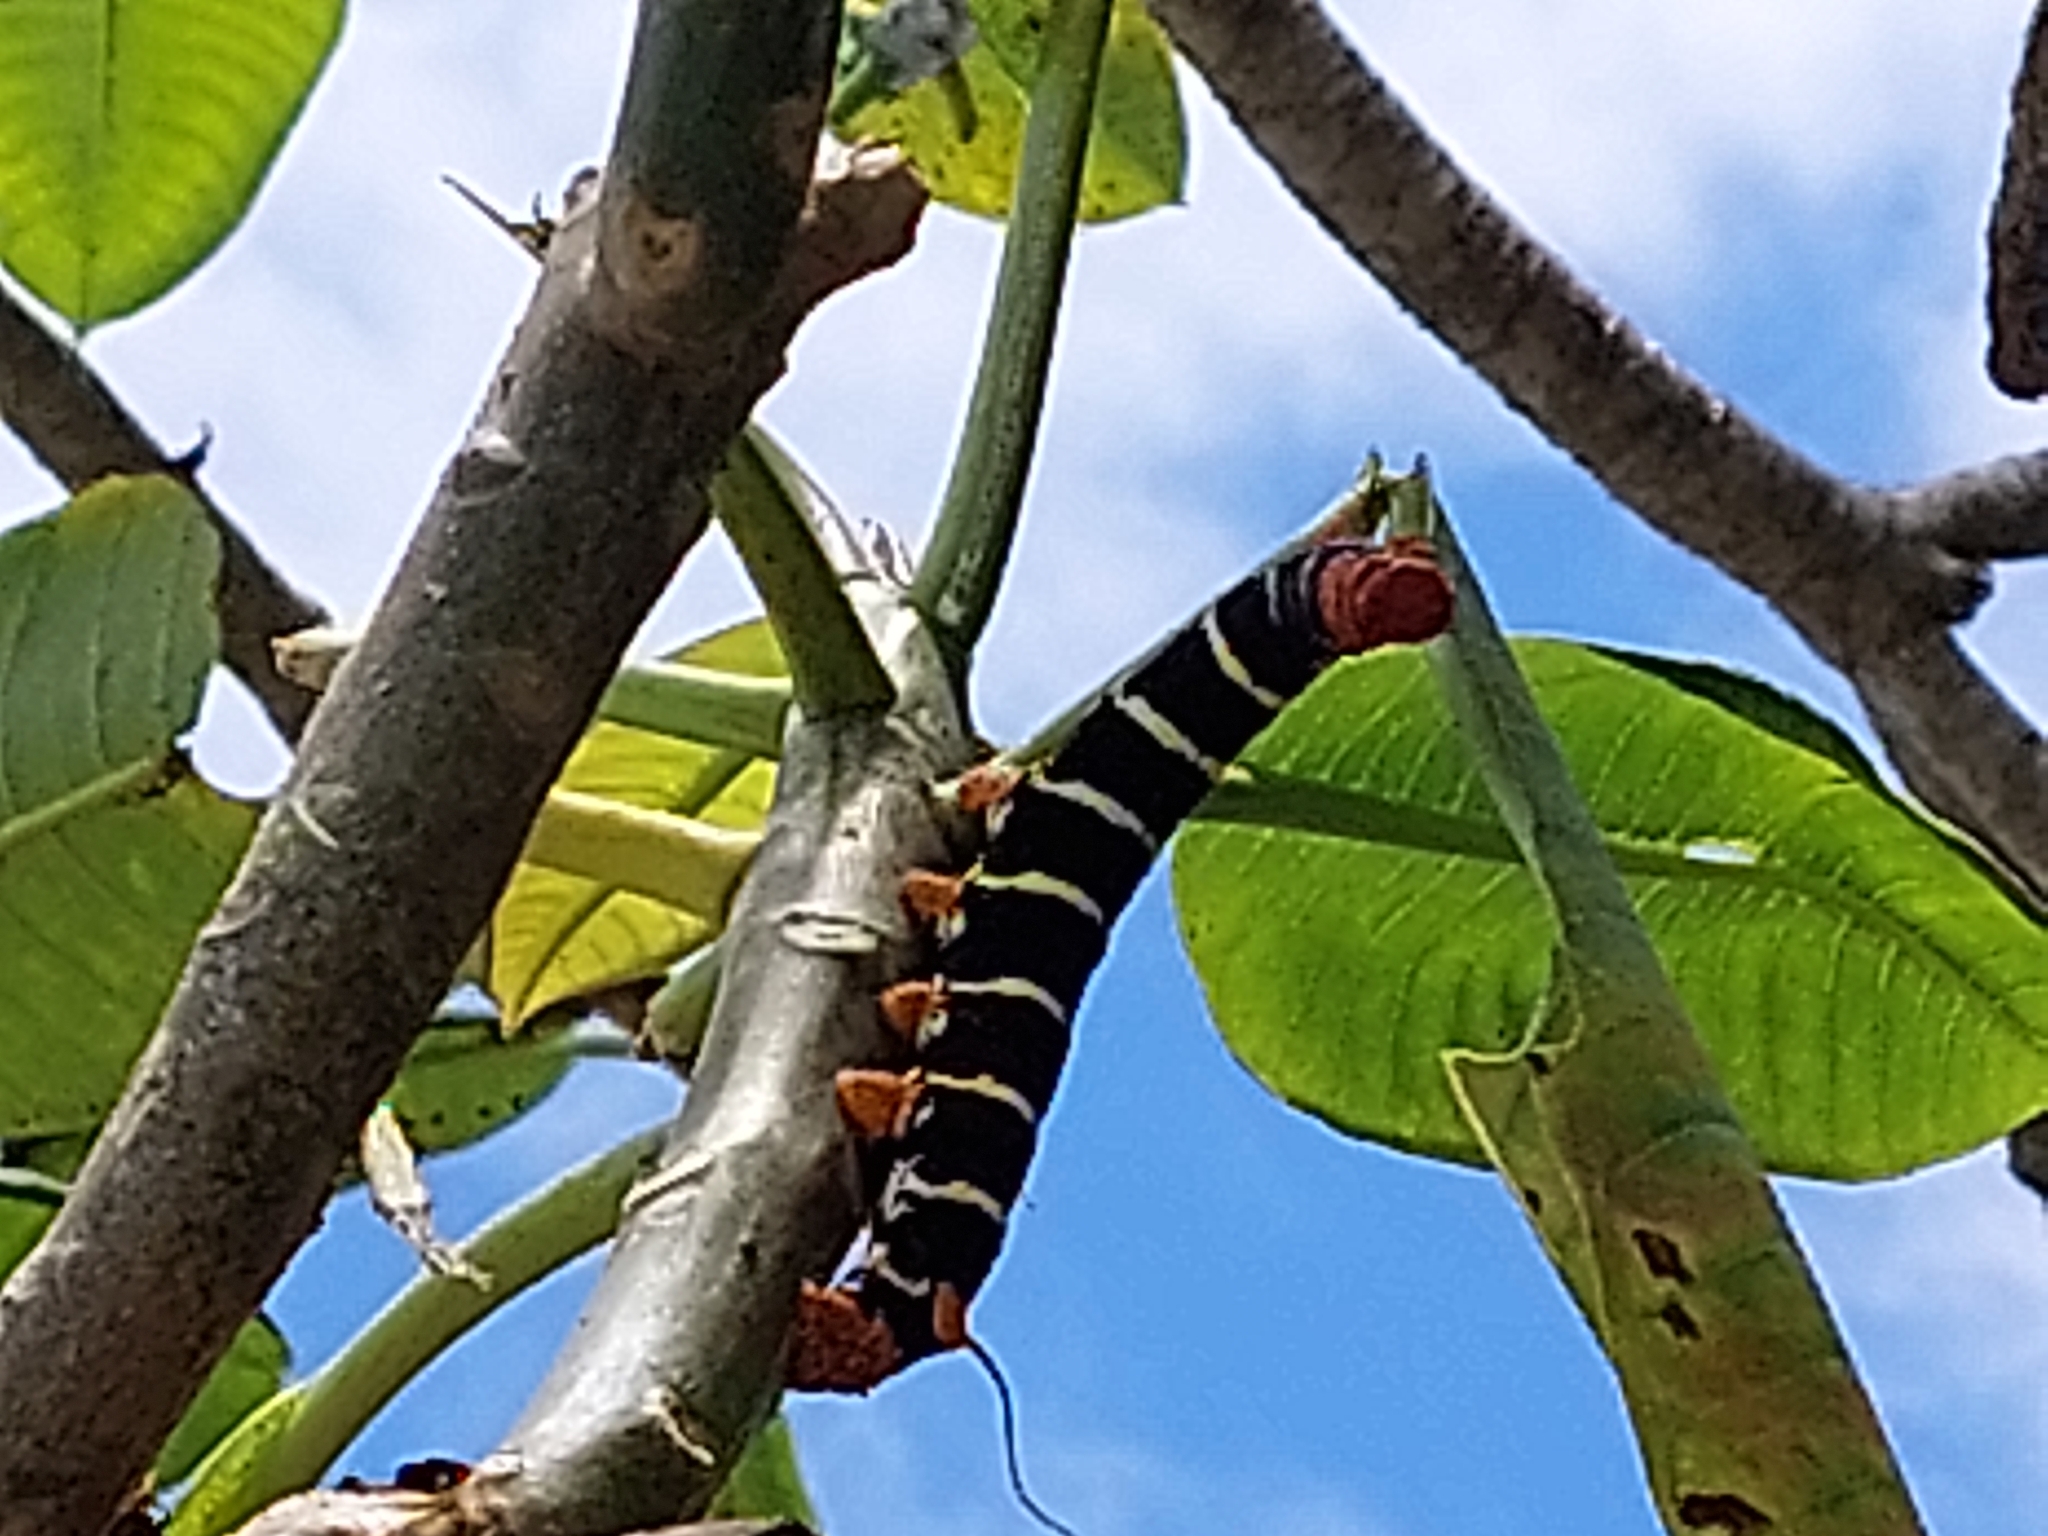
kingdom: Animalia
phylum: Arthropoda
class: Insecta
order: Lepidoptera
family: Sphingidae
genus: Pseudosphinx
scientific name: Pseudosphinx tetrio
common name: Tetrio sphinx
